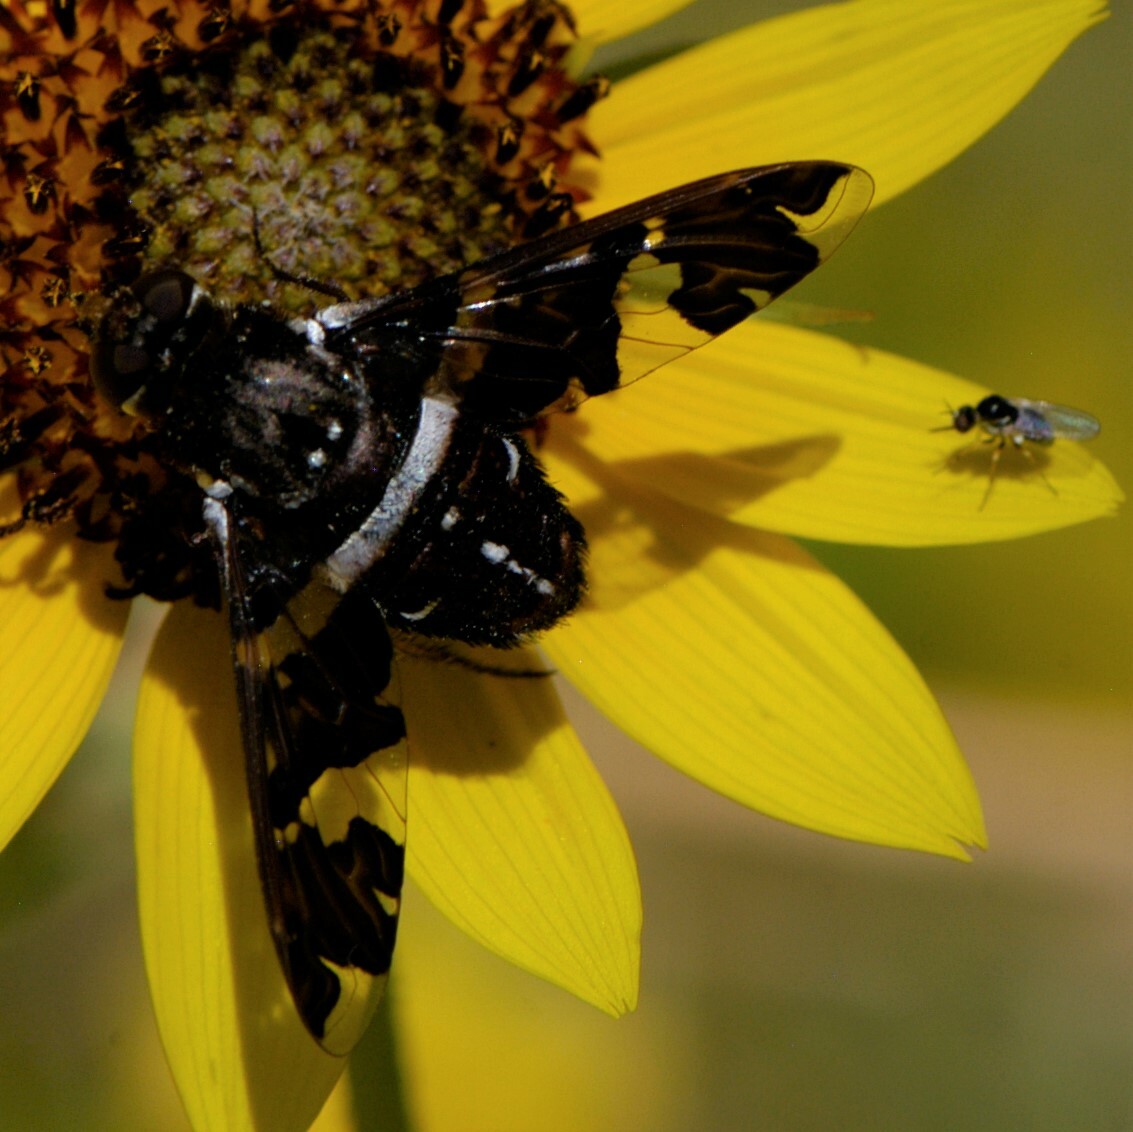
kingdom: Animalia
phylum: Arthropoda
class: Insecta
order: Diptera
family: Bombyliidae
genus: Exoprosopa
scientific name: Exoprosopa dorcadion
